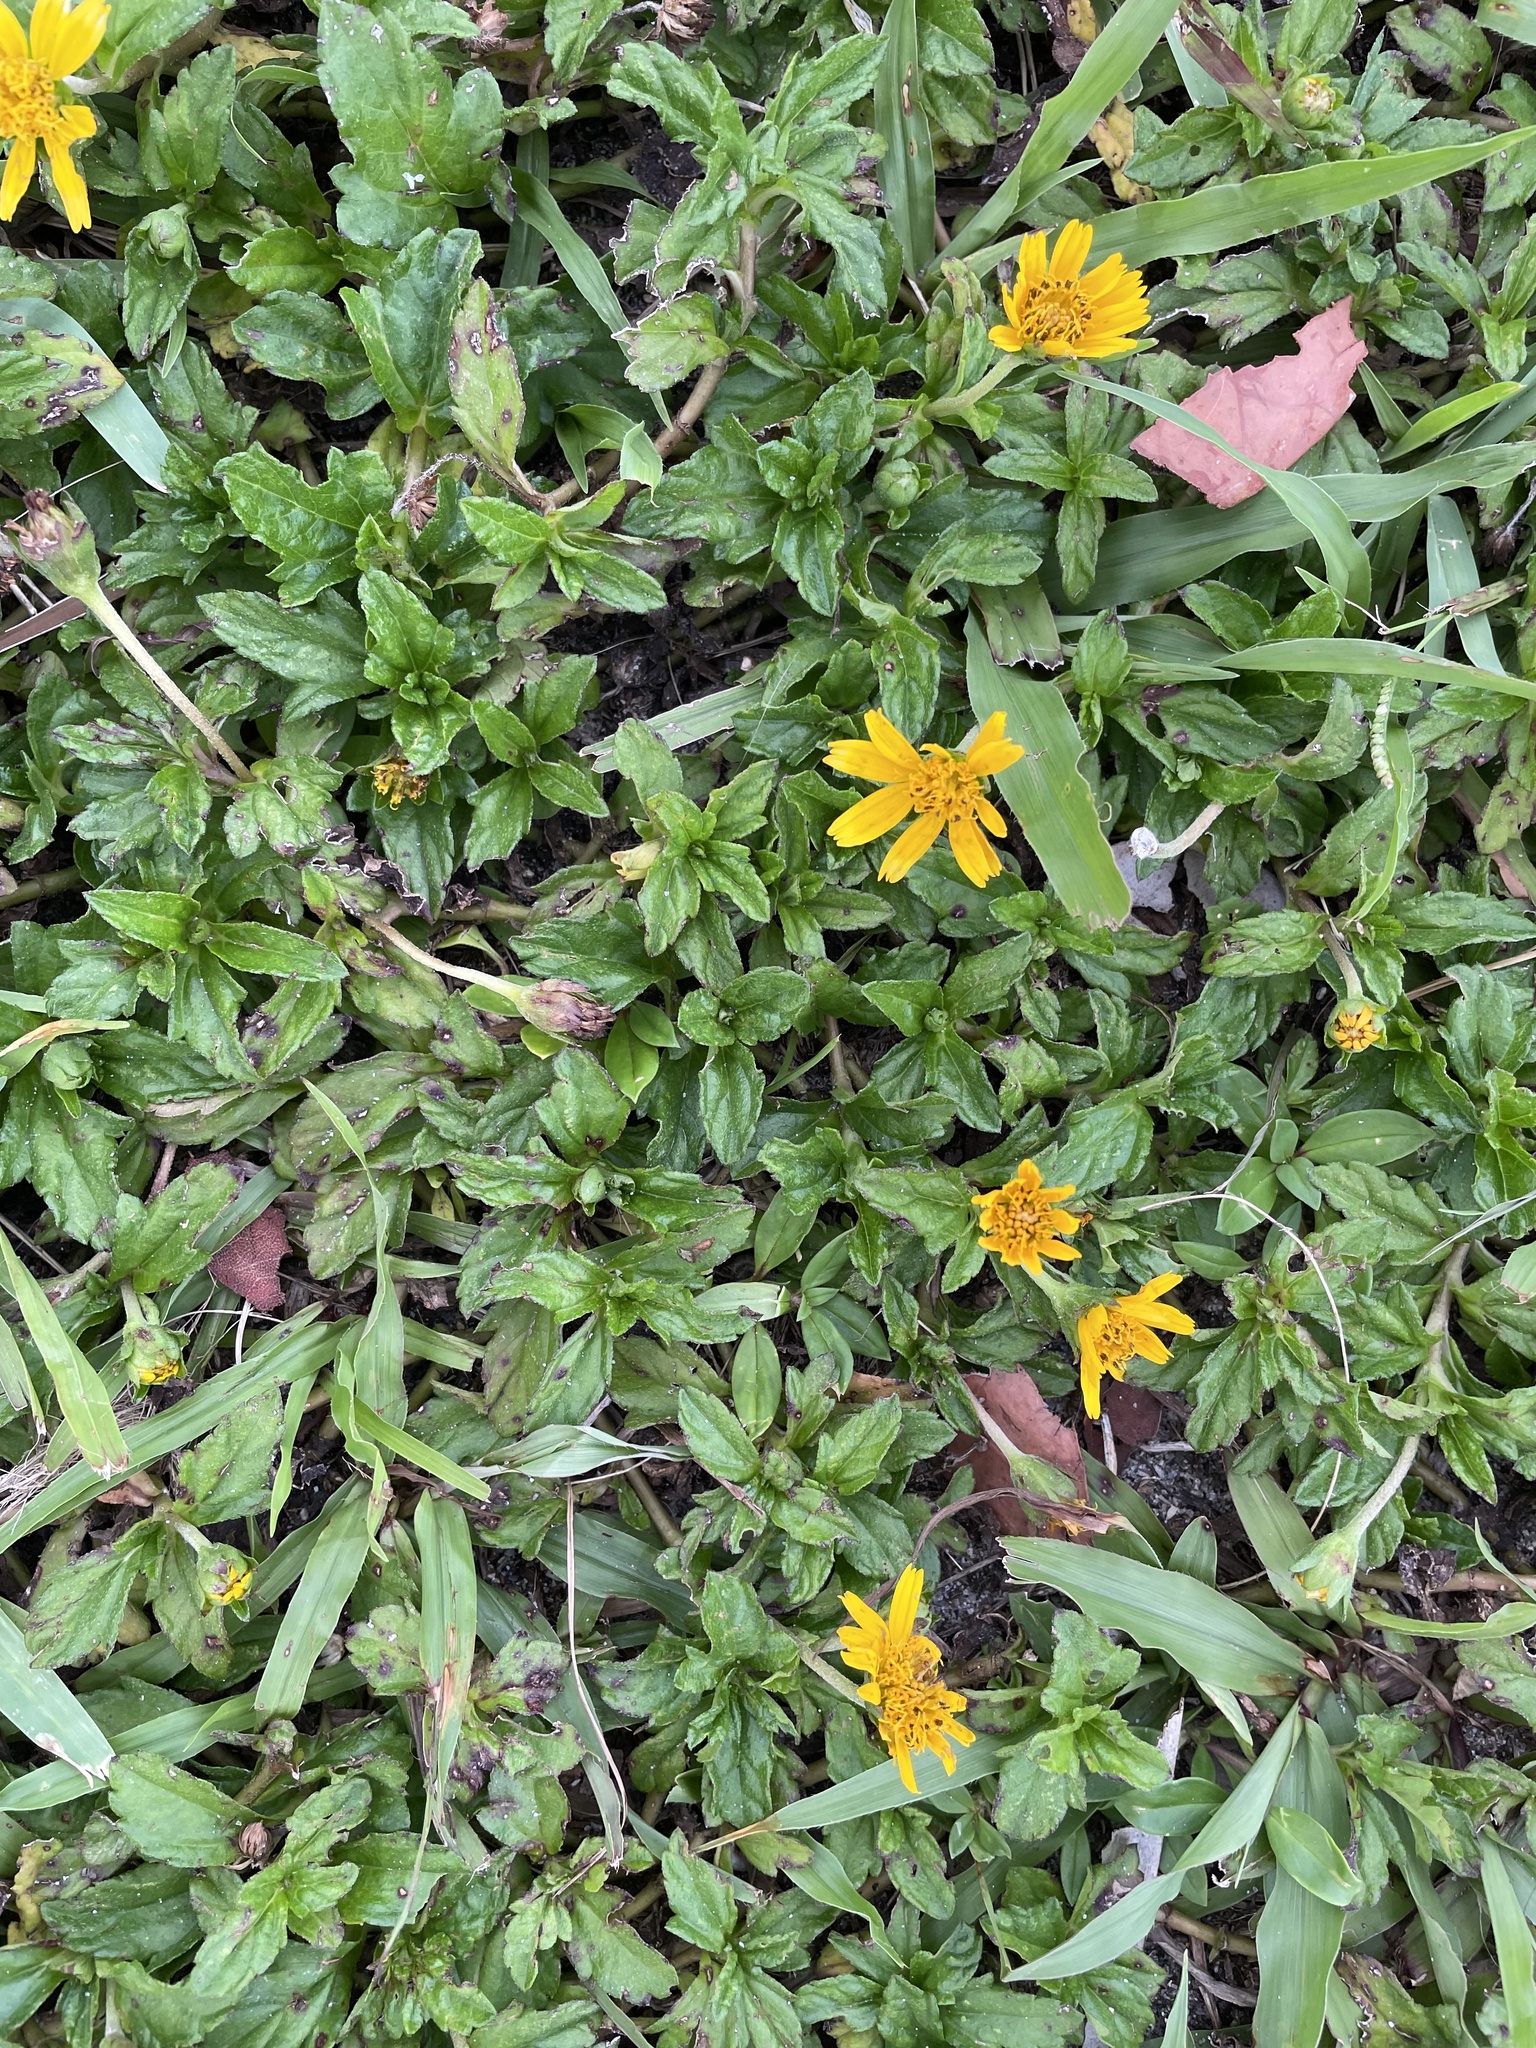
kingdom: Plantae
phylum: Tracheophyta
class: Magnoliopsida
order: Asterales
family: Asteraceae
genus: Sphagneticola
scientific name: Sphagneticola trilobata
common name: Bay biscayne creeping-oxeye
